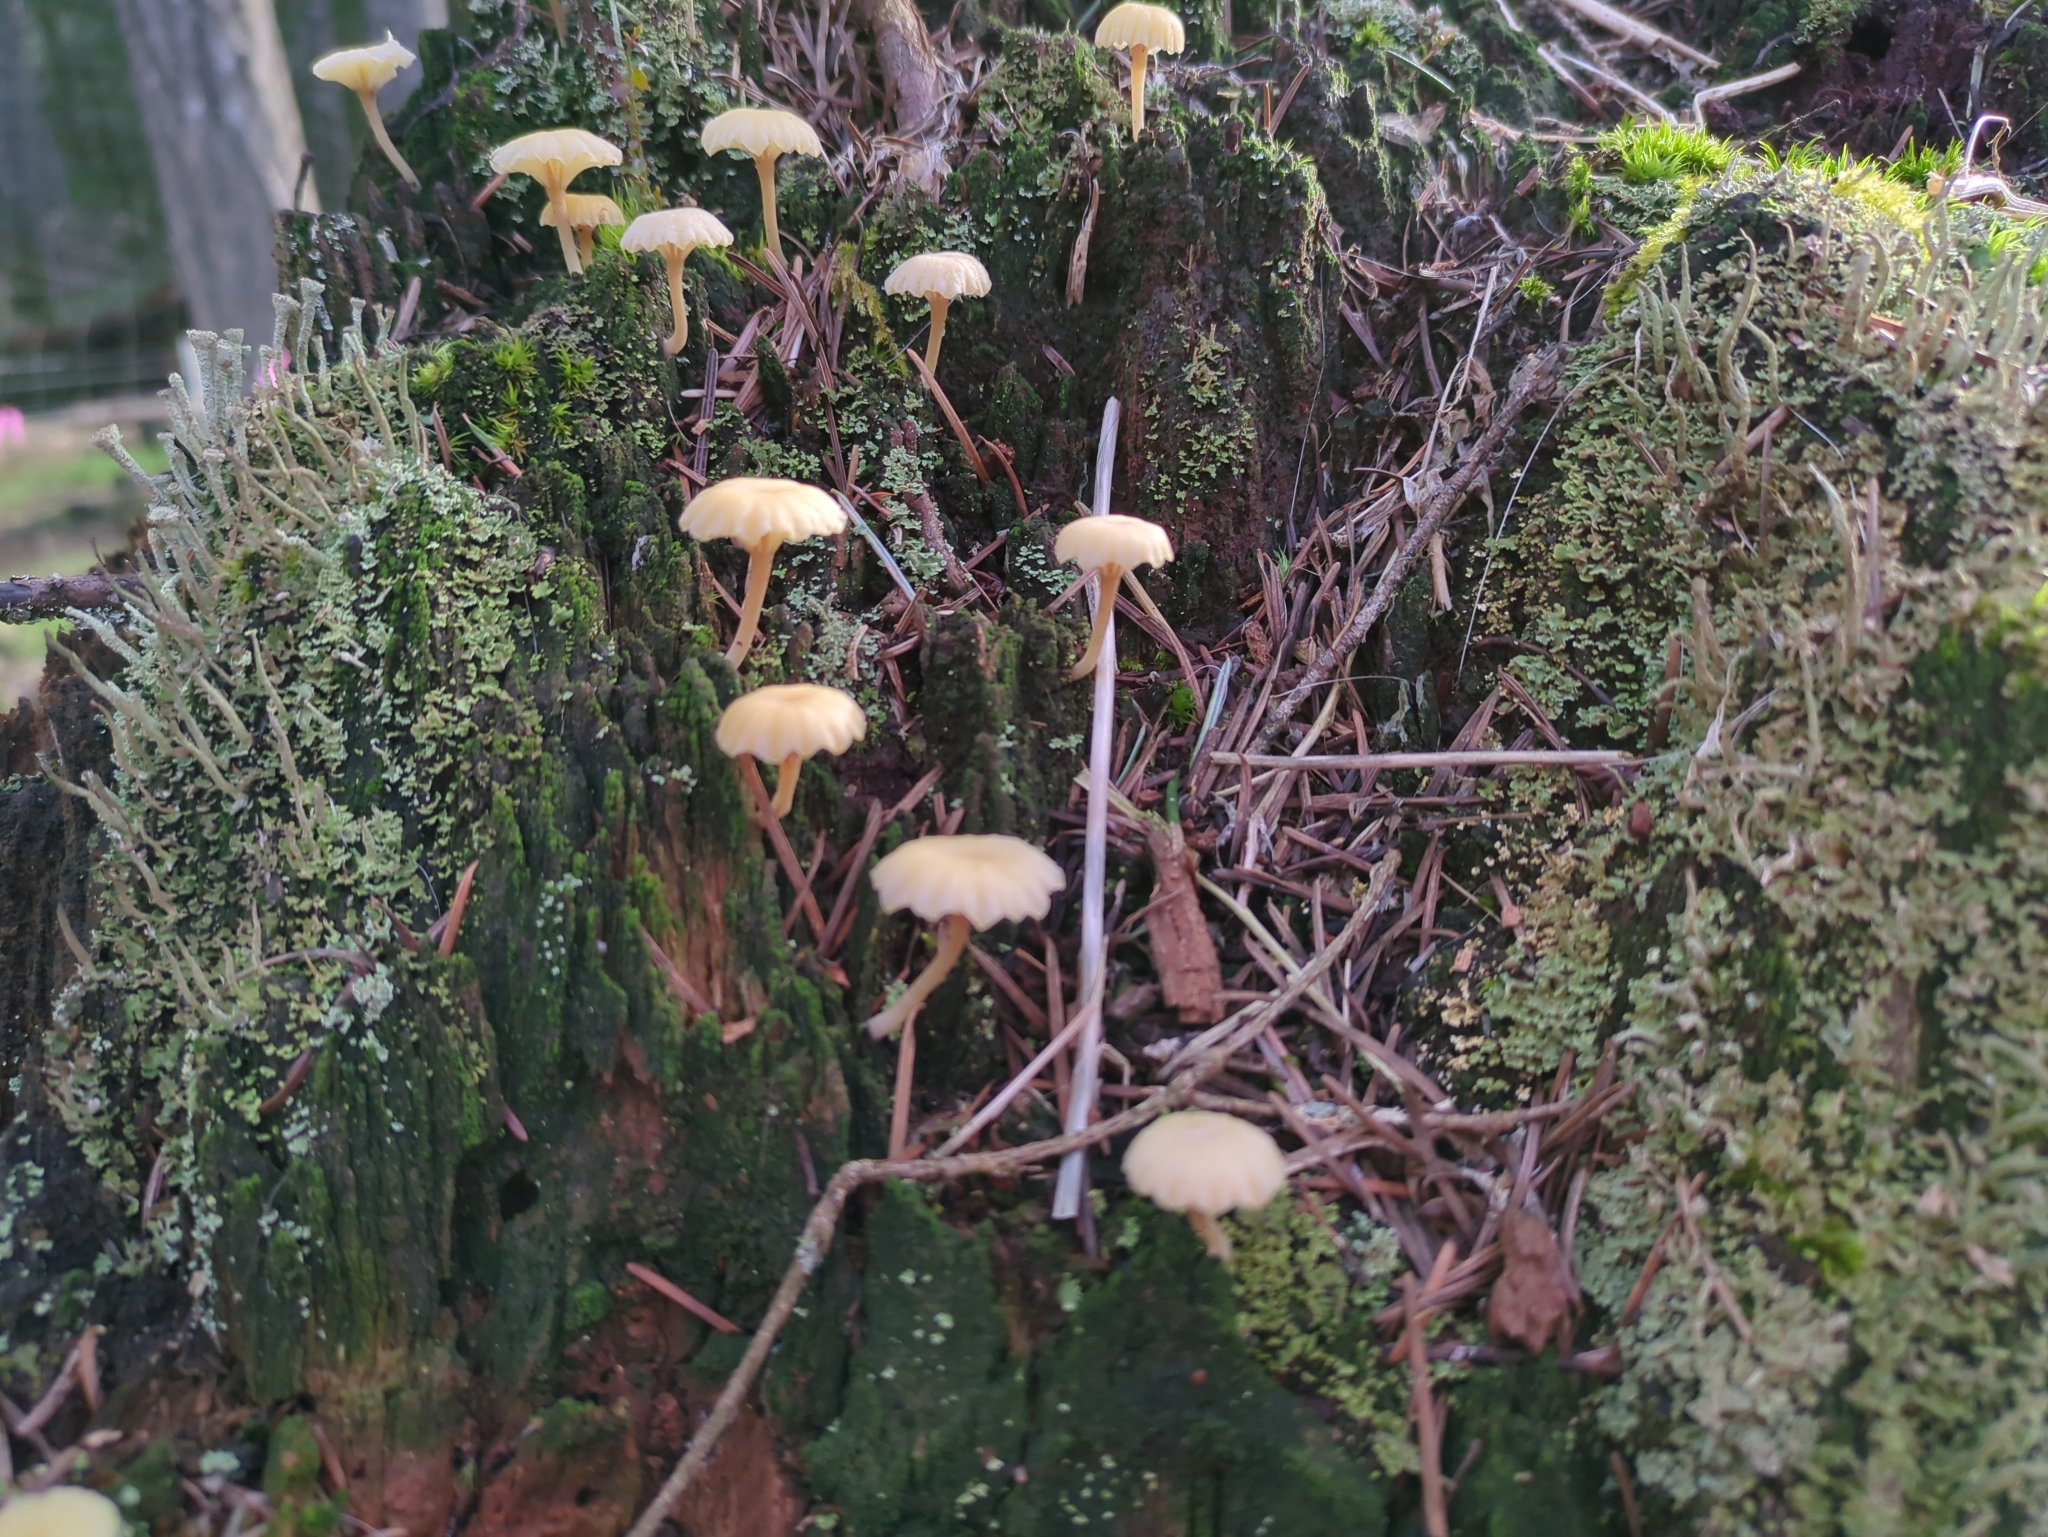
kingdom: Fungi
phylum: Basidiomycota
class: Agaricomycetes
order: Agaricales
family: Hygrophoraceae
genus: Lichenomphalia
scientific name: Lichenomphalia
